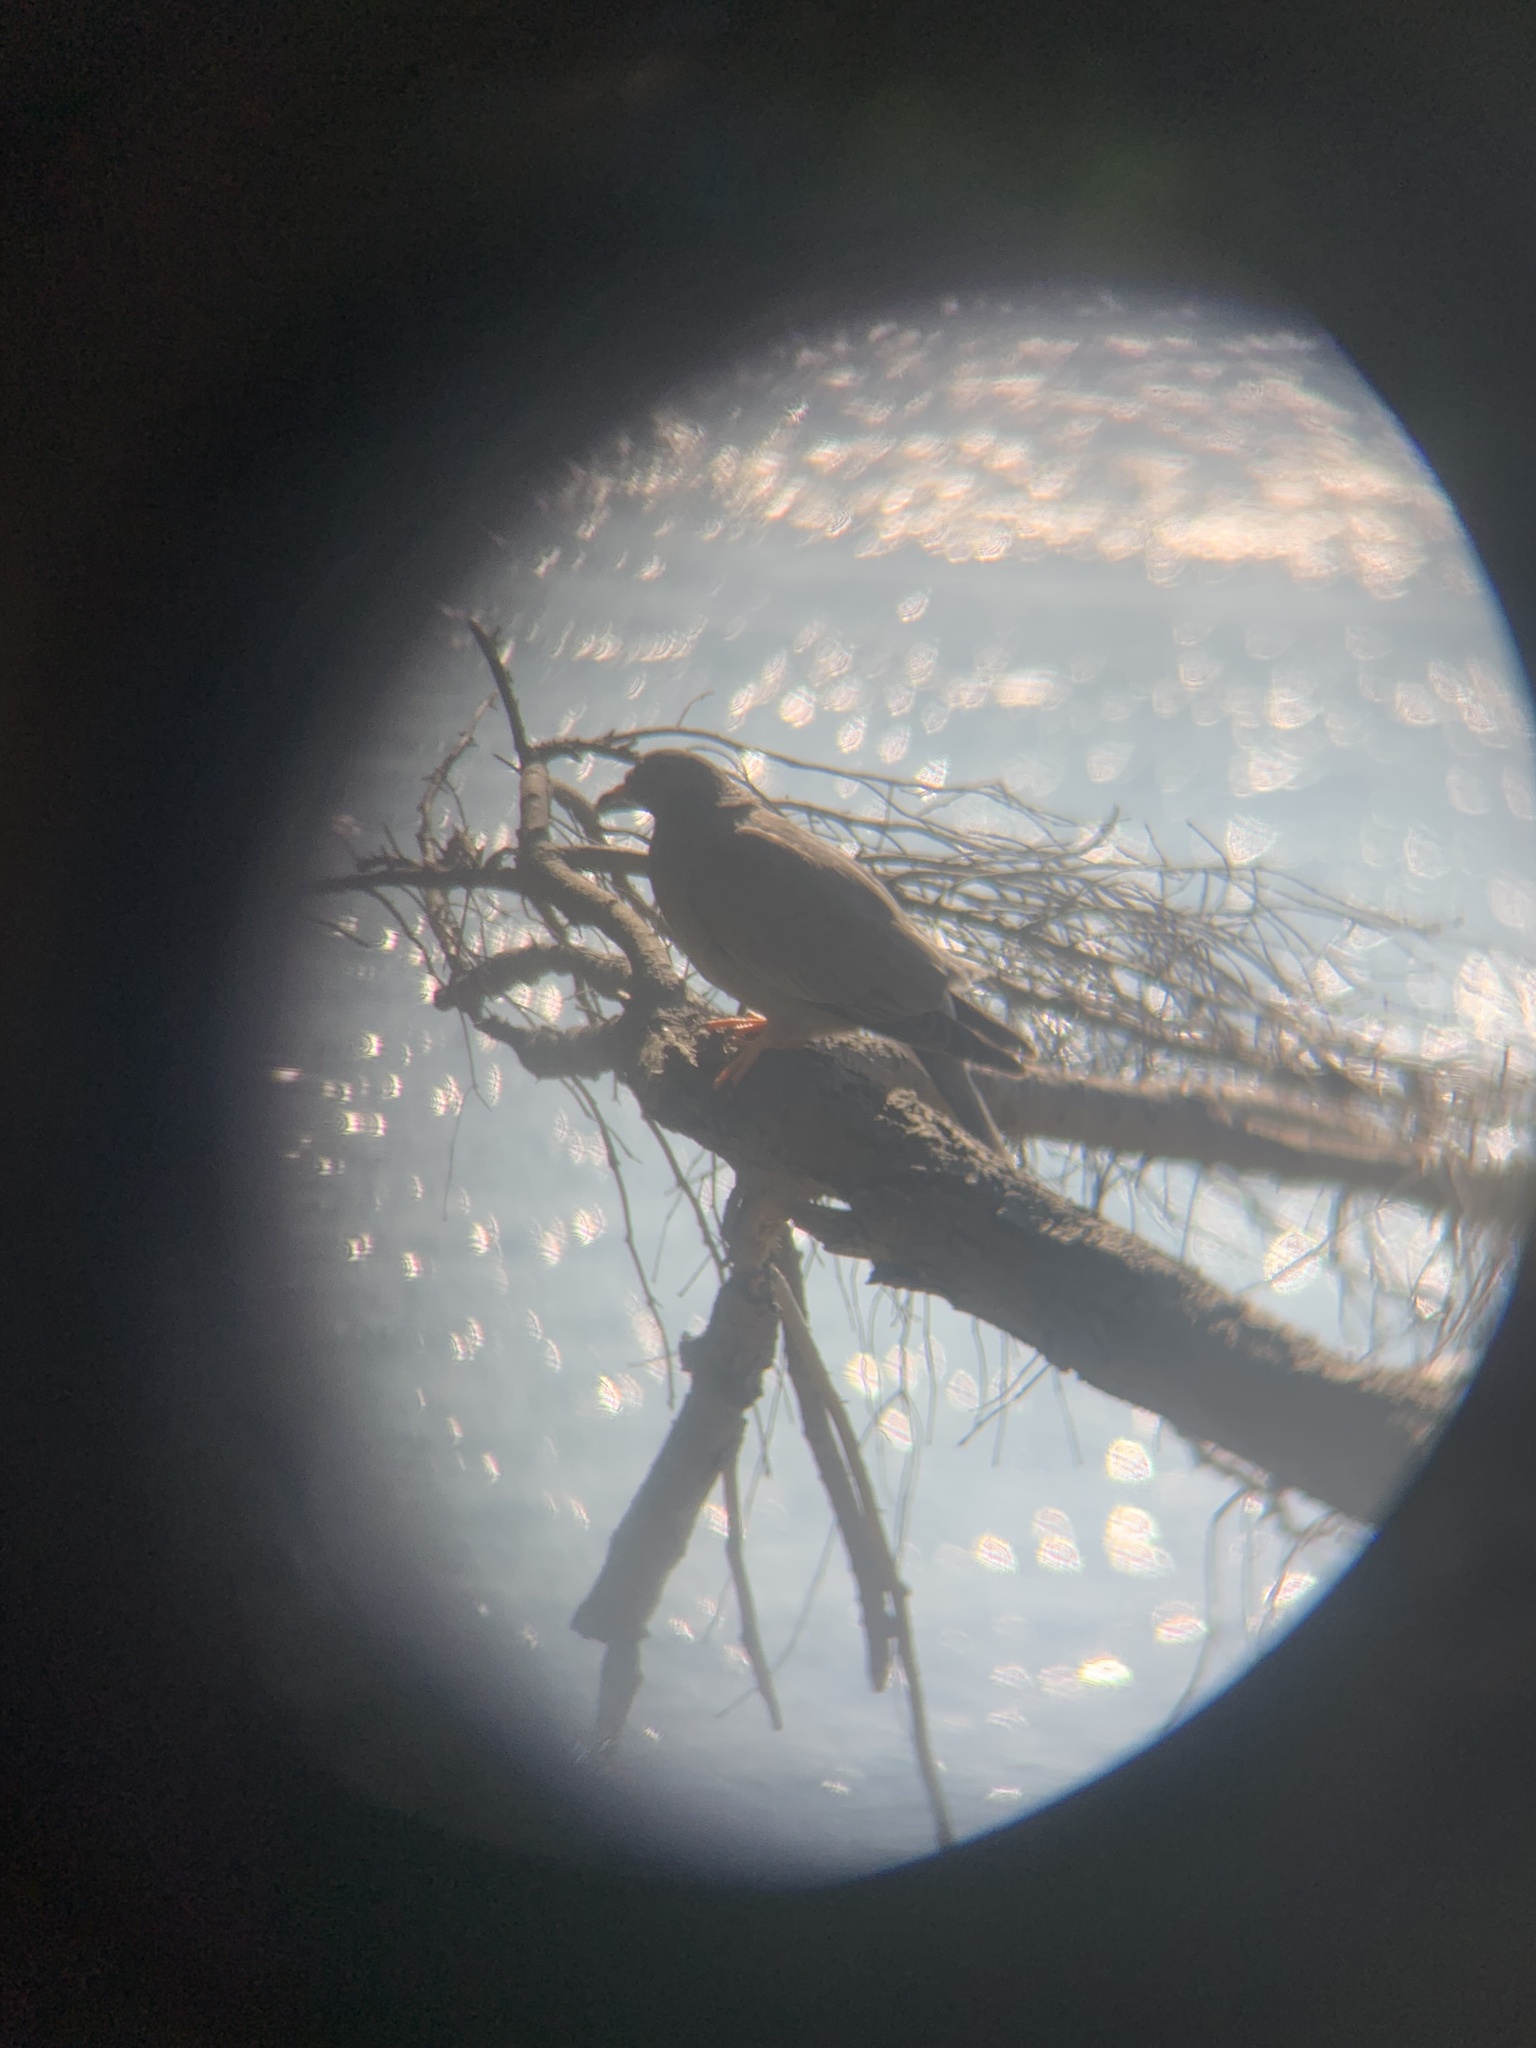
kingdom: Animalia
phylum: Chordata
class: Aves
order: Columbiformes
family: Columbidae
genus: Patagioenas
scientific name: Patagioenas fasciata
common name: Band-tailed pigeon
